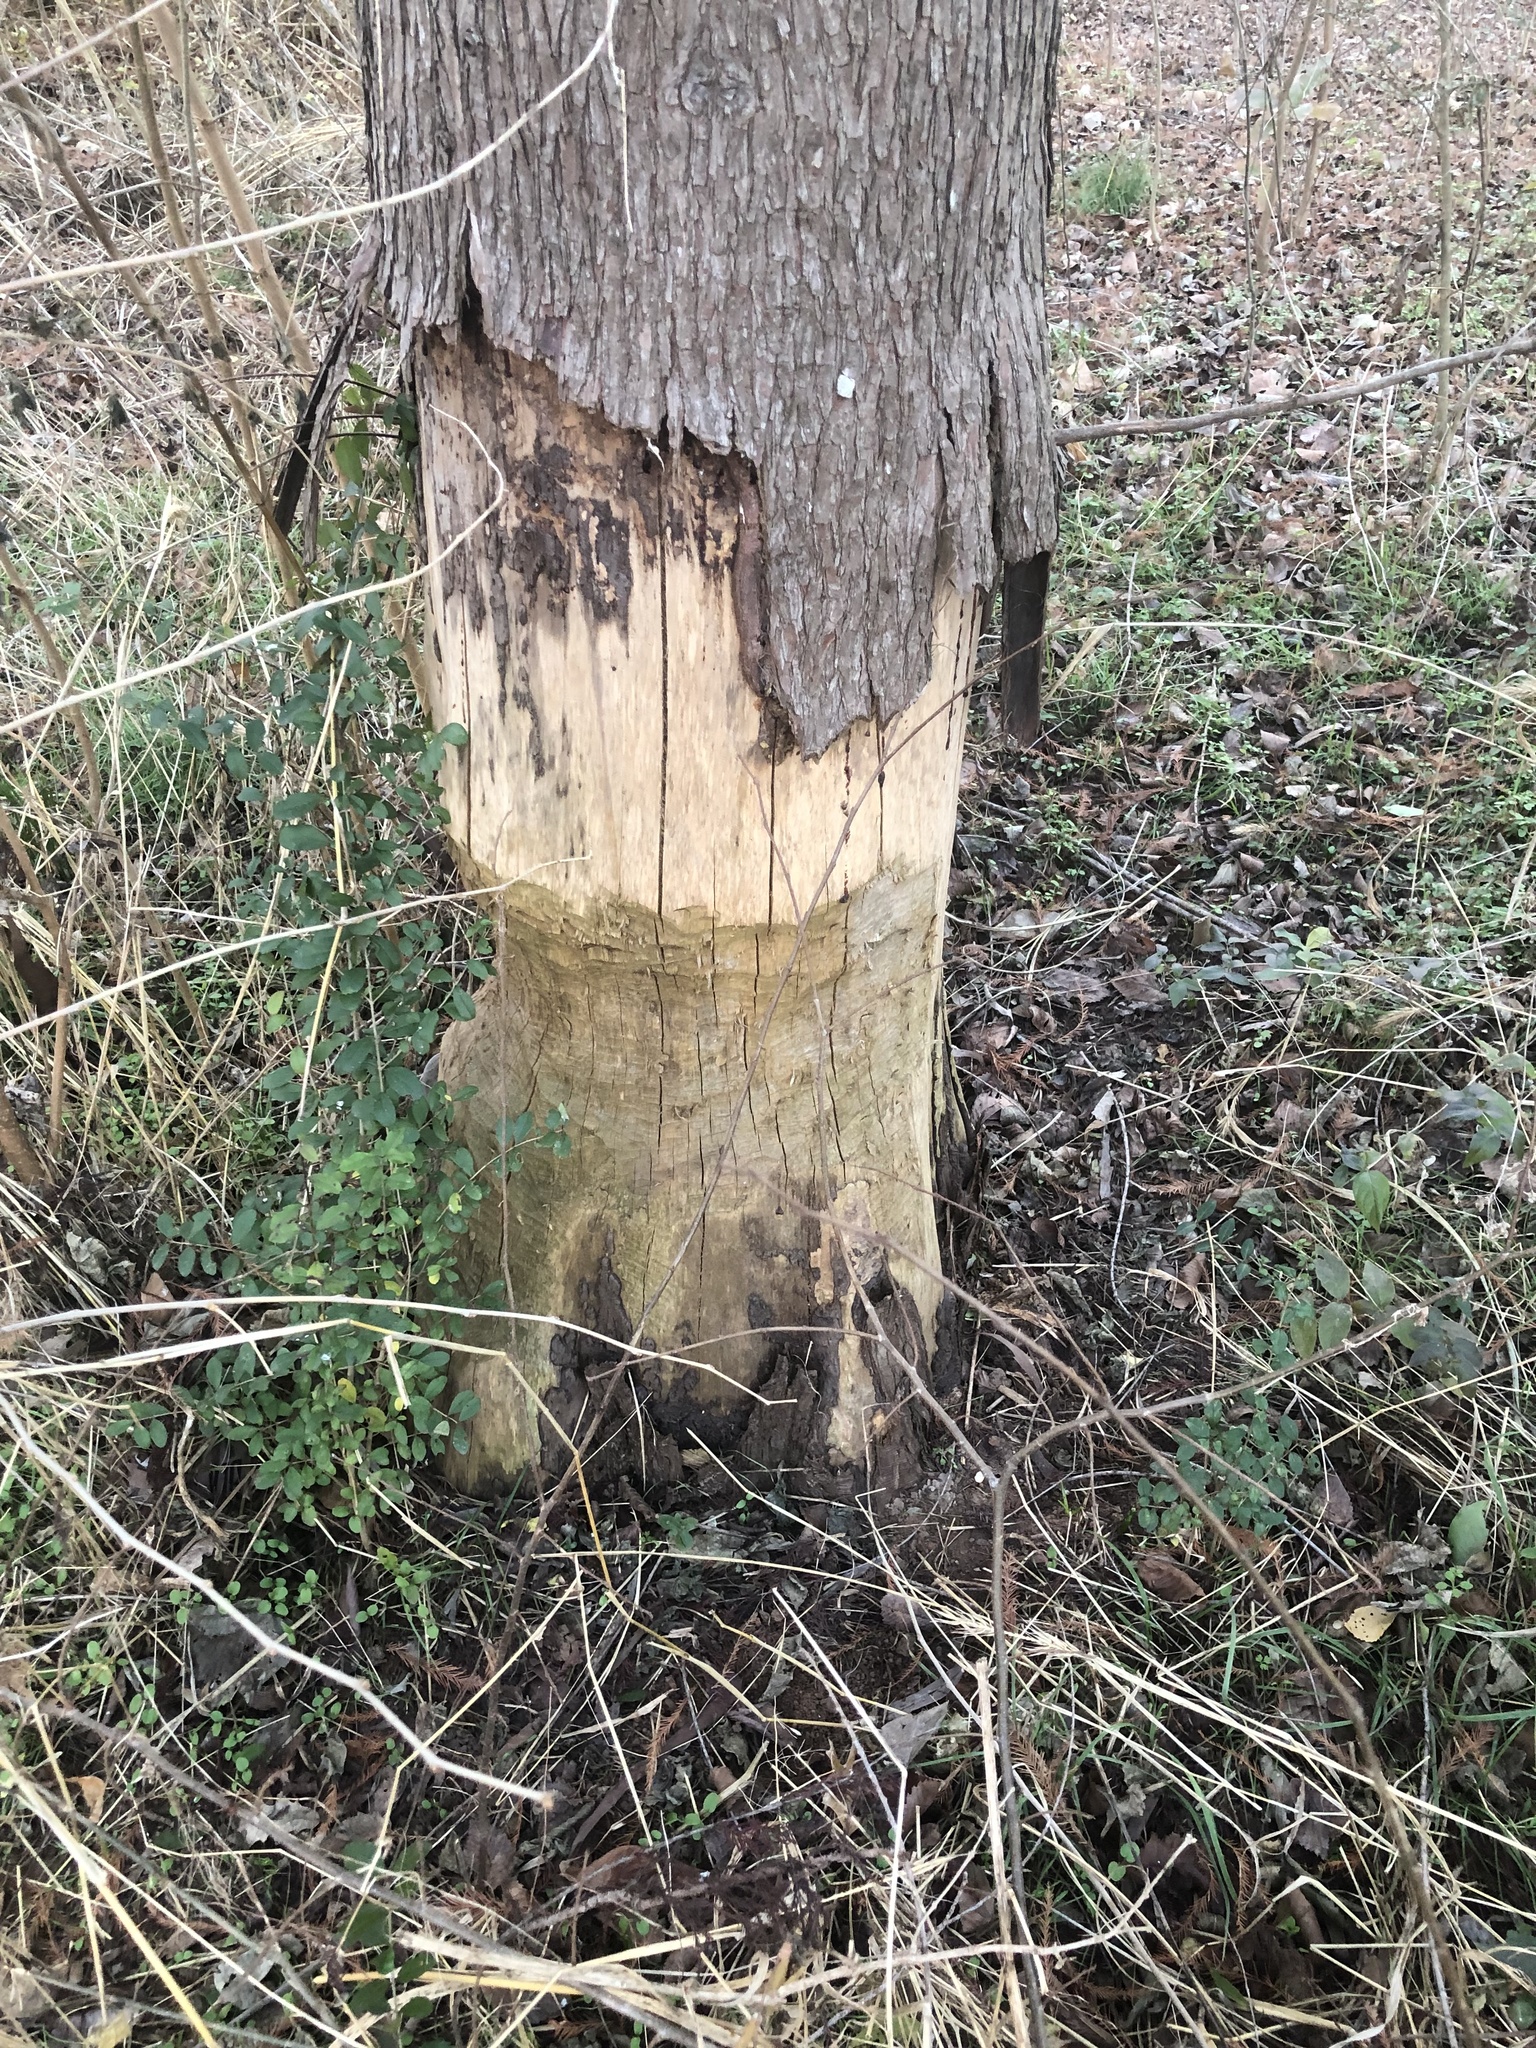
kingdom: Animalia
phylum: Chordata
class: Mammalia
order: Rodentia
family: Castoridae
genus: Castor
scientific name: Castor canadensis
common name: American beaver
